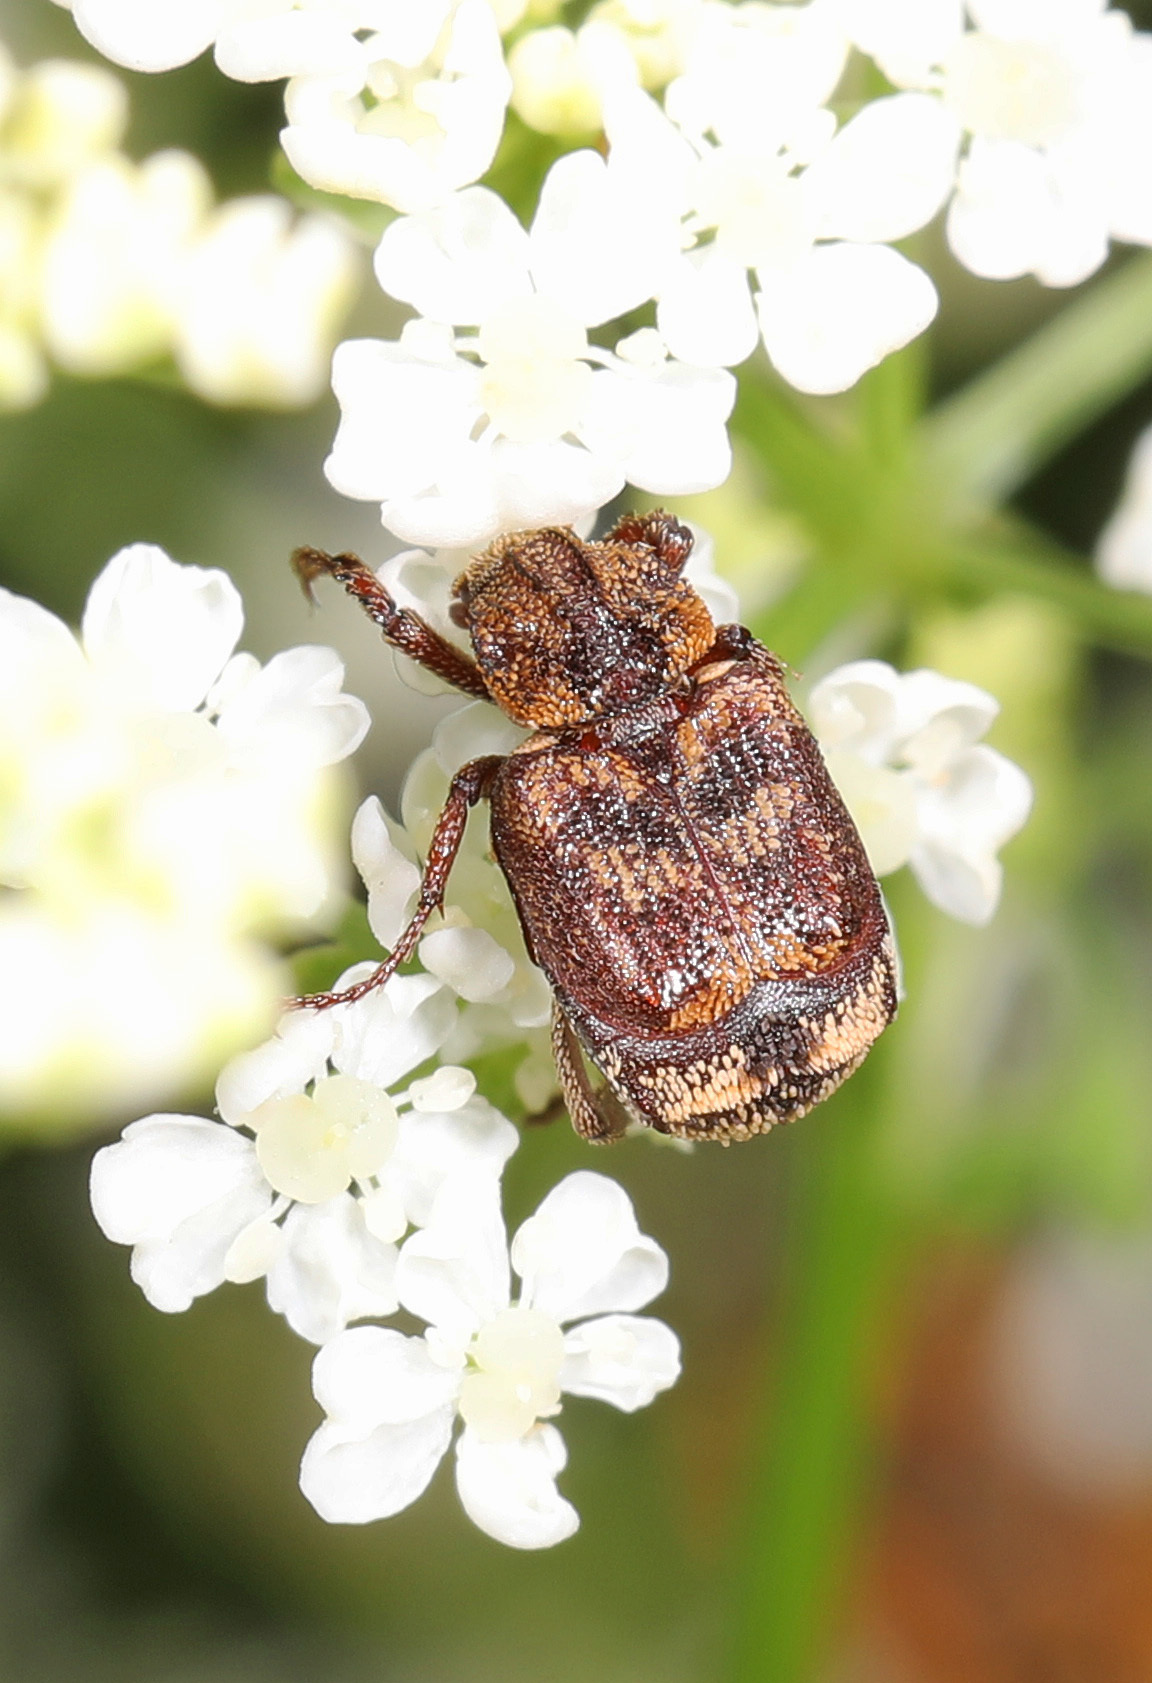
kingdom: Animalia
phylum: Arthropoda
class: Insecta
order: Coleoptera
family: Scarabaeidae
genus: Valgus
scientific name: Valgus canaliculatus
